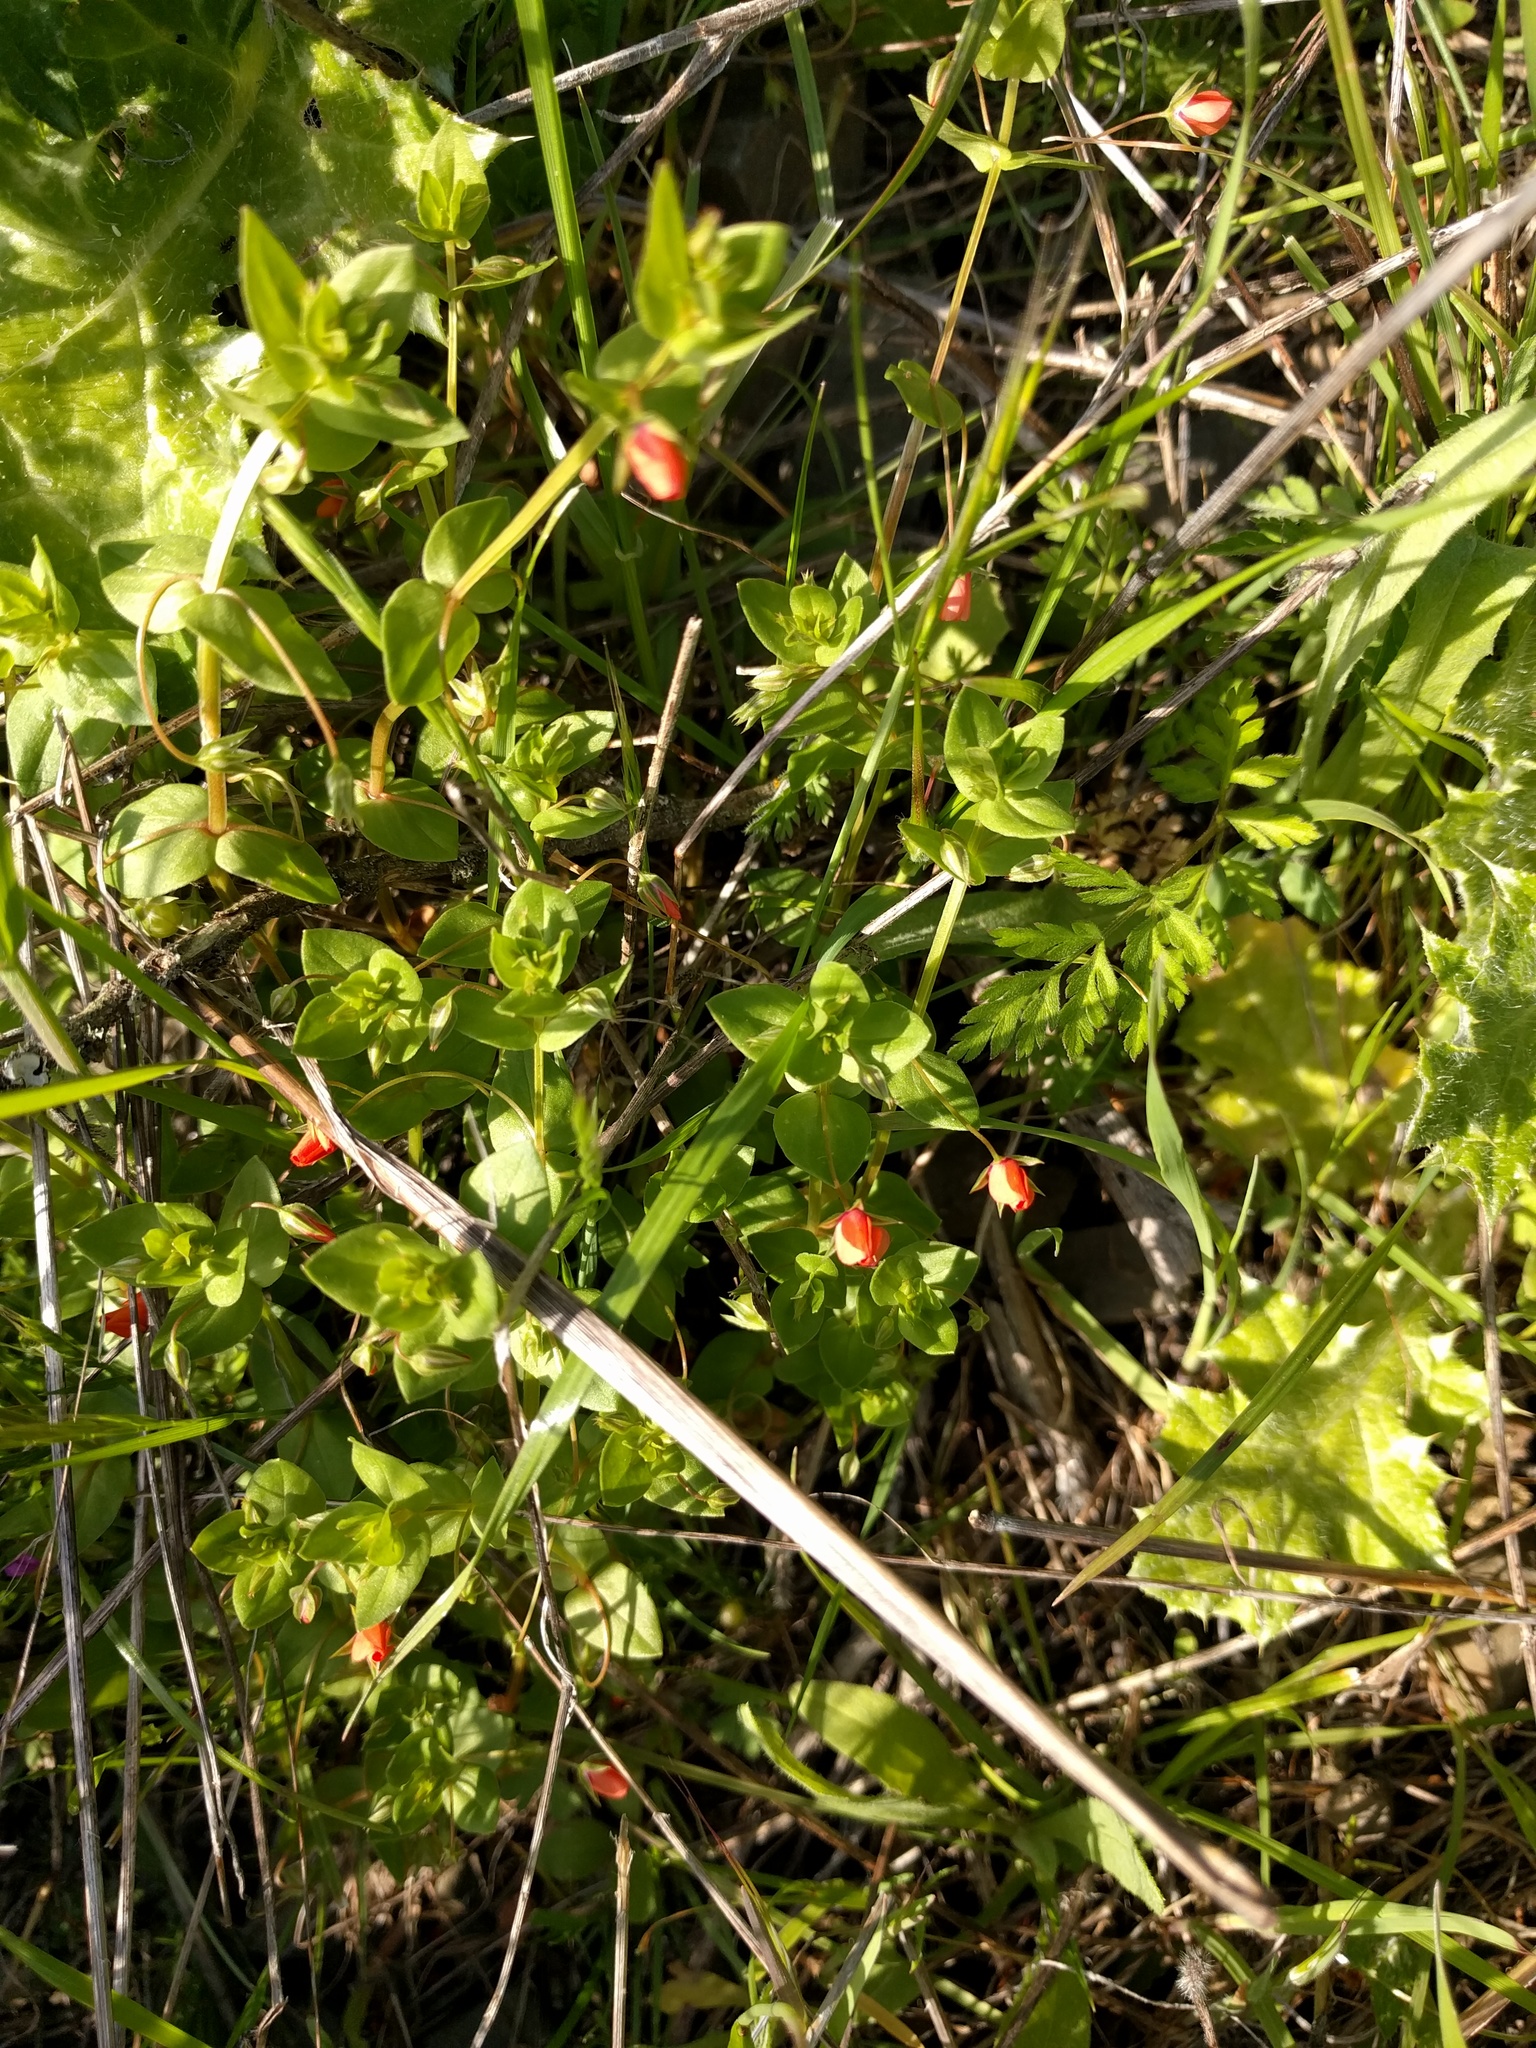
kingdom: Plantae
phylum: Tracheophyta
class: Magnoliopsida
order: Ericales
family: Primulaceae
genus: Lysimachia
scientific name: Lysimachia arvensis
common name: Scarlet pimpernel
